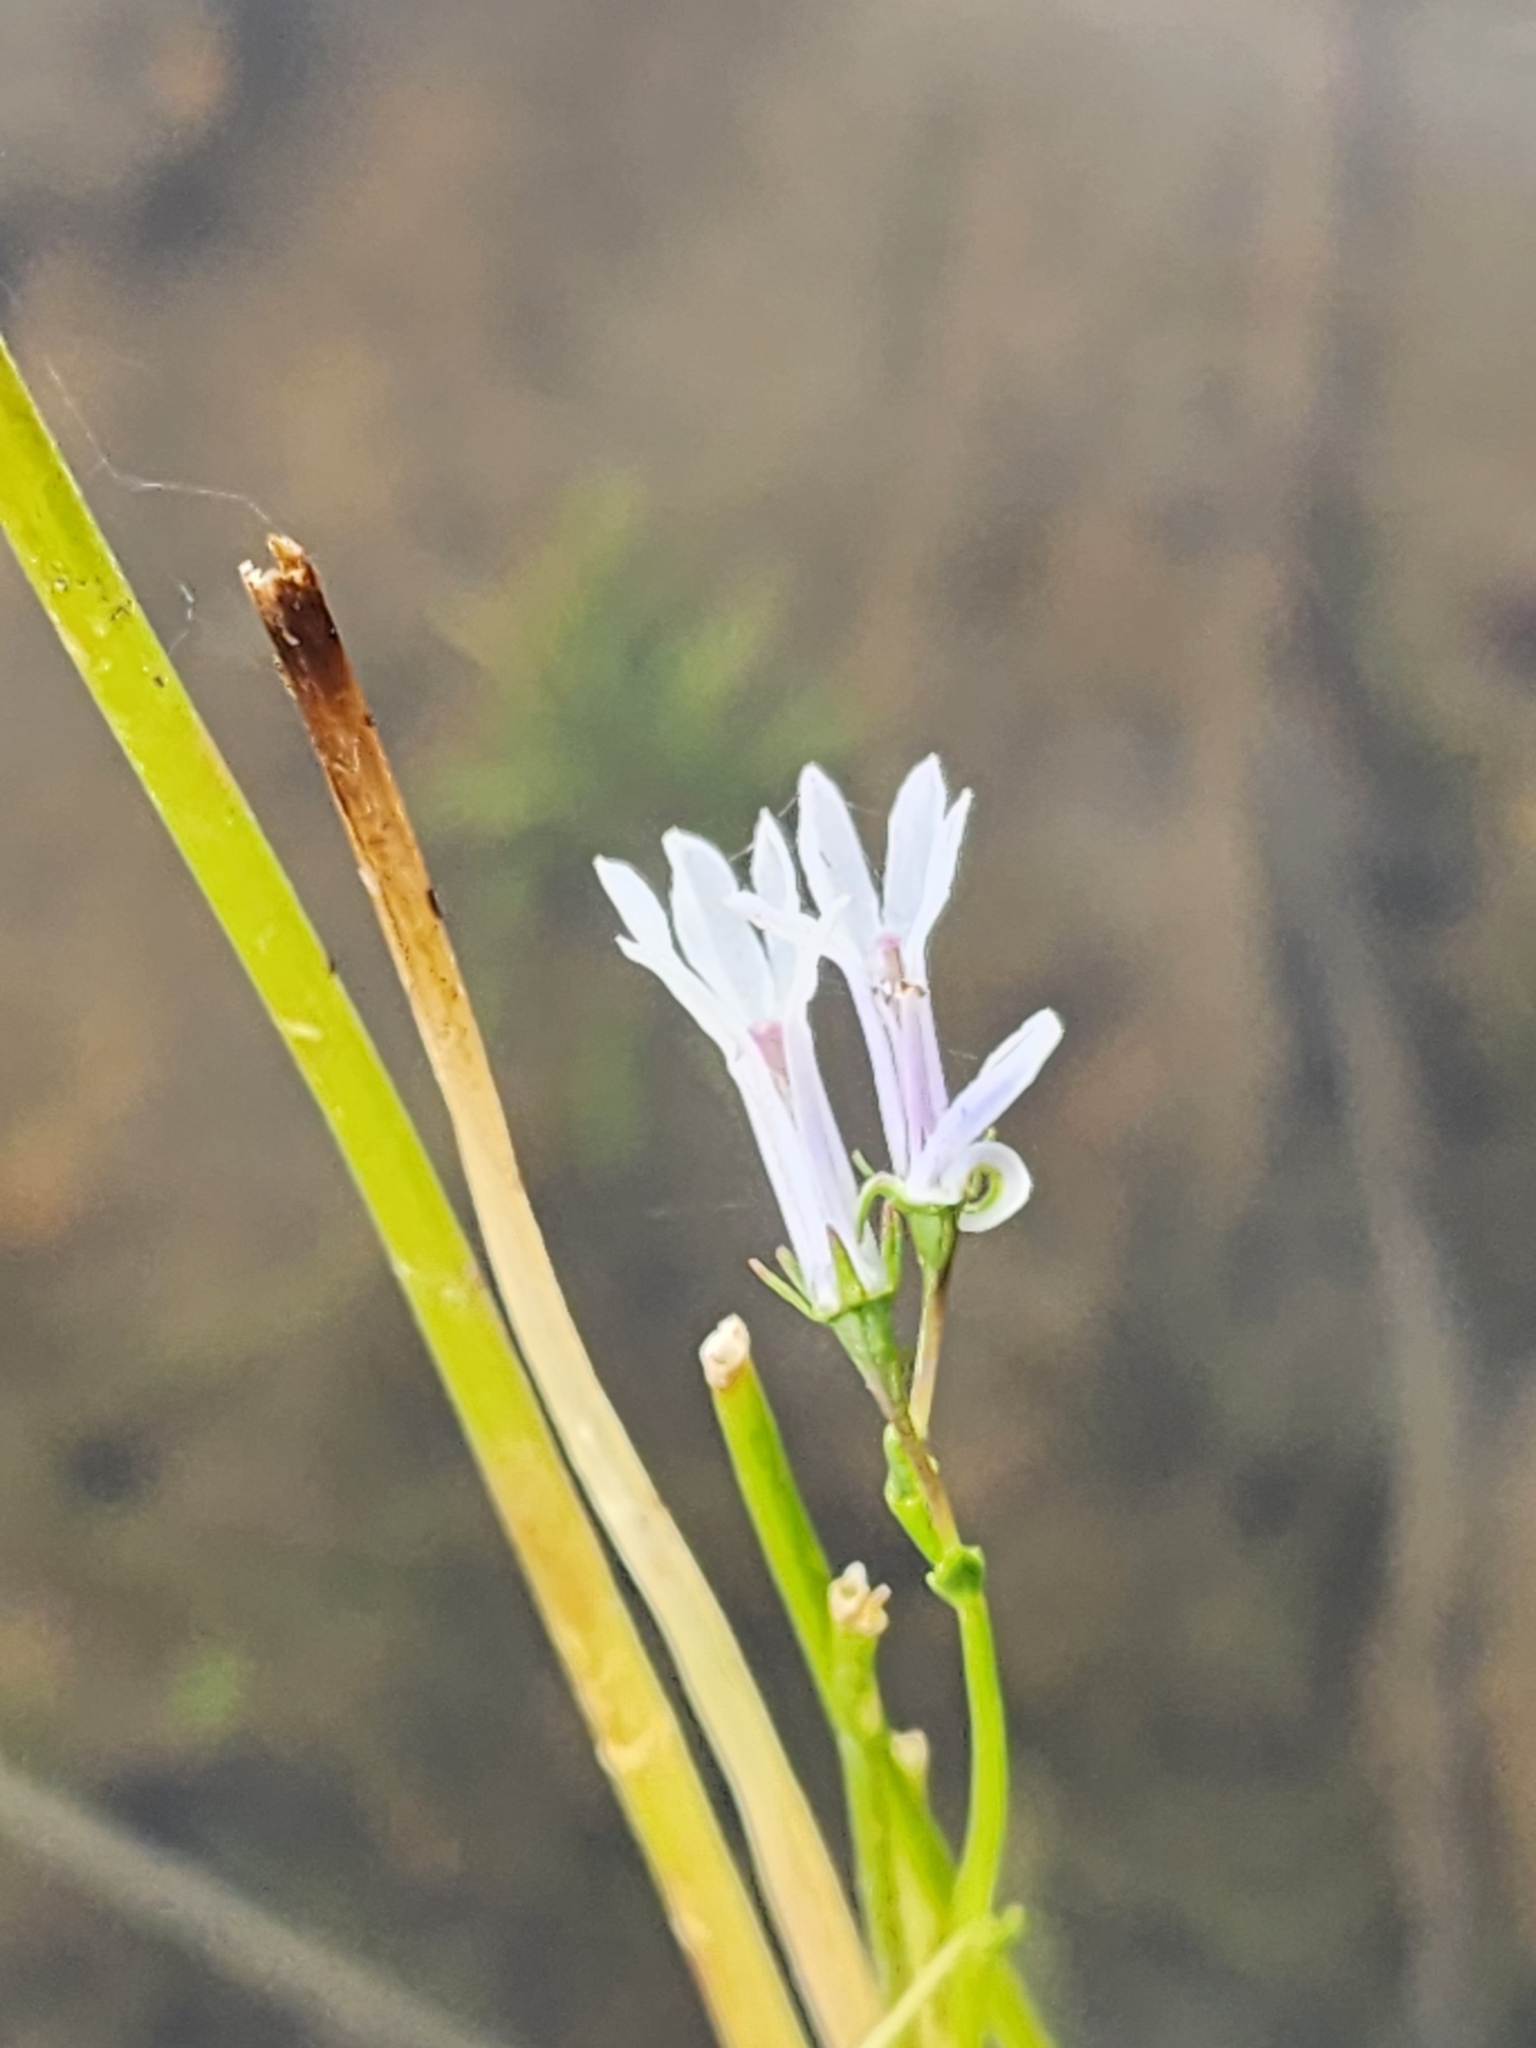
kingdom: Plantae
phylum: Tracheophyta
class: Magnoliopsida
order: Asterales
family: Campanulaceae
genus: Lobelia
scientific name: Lobelia dortmanna
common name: Water lobelia
